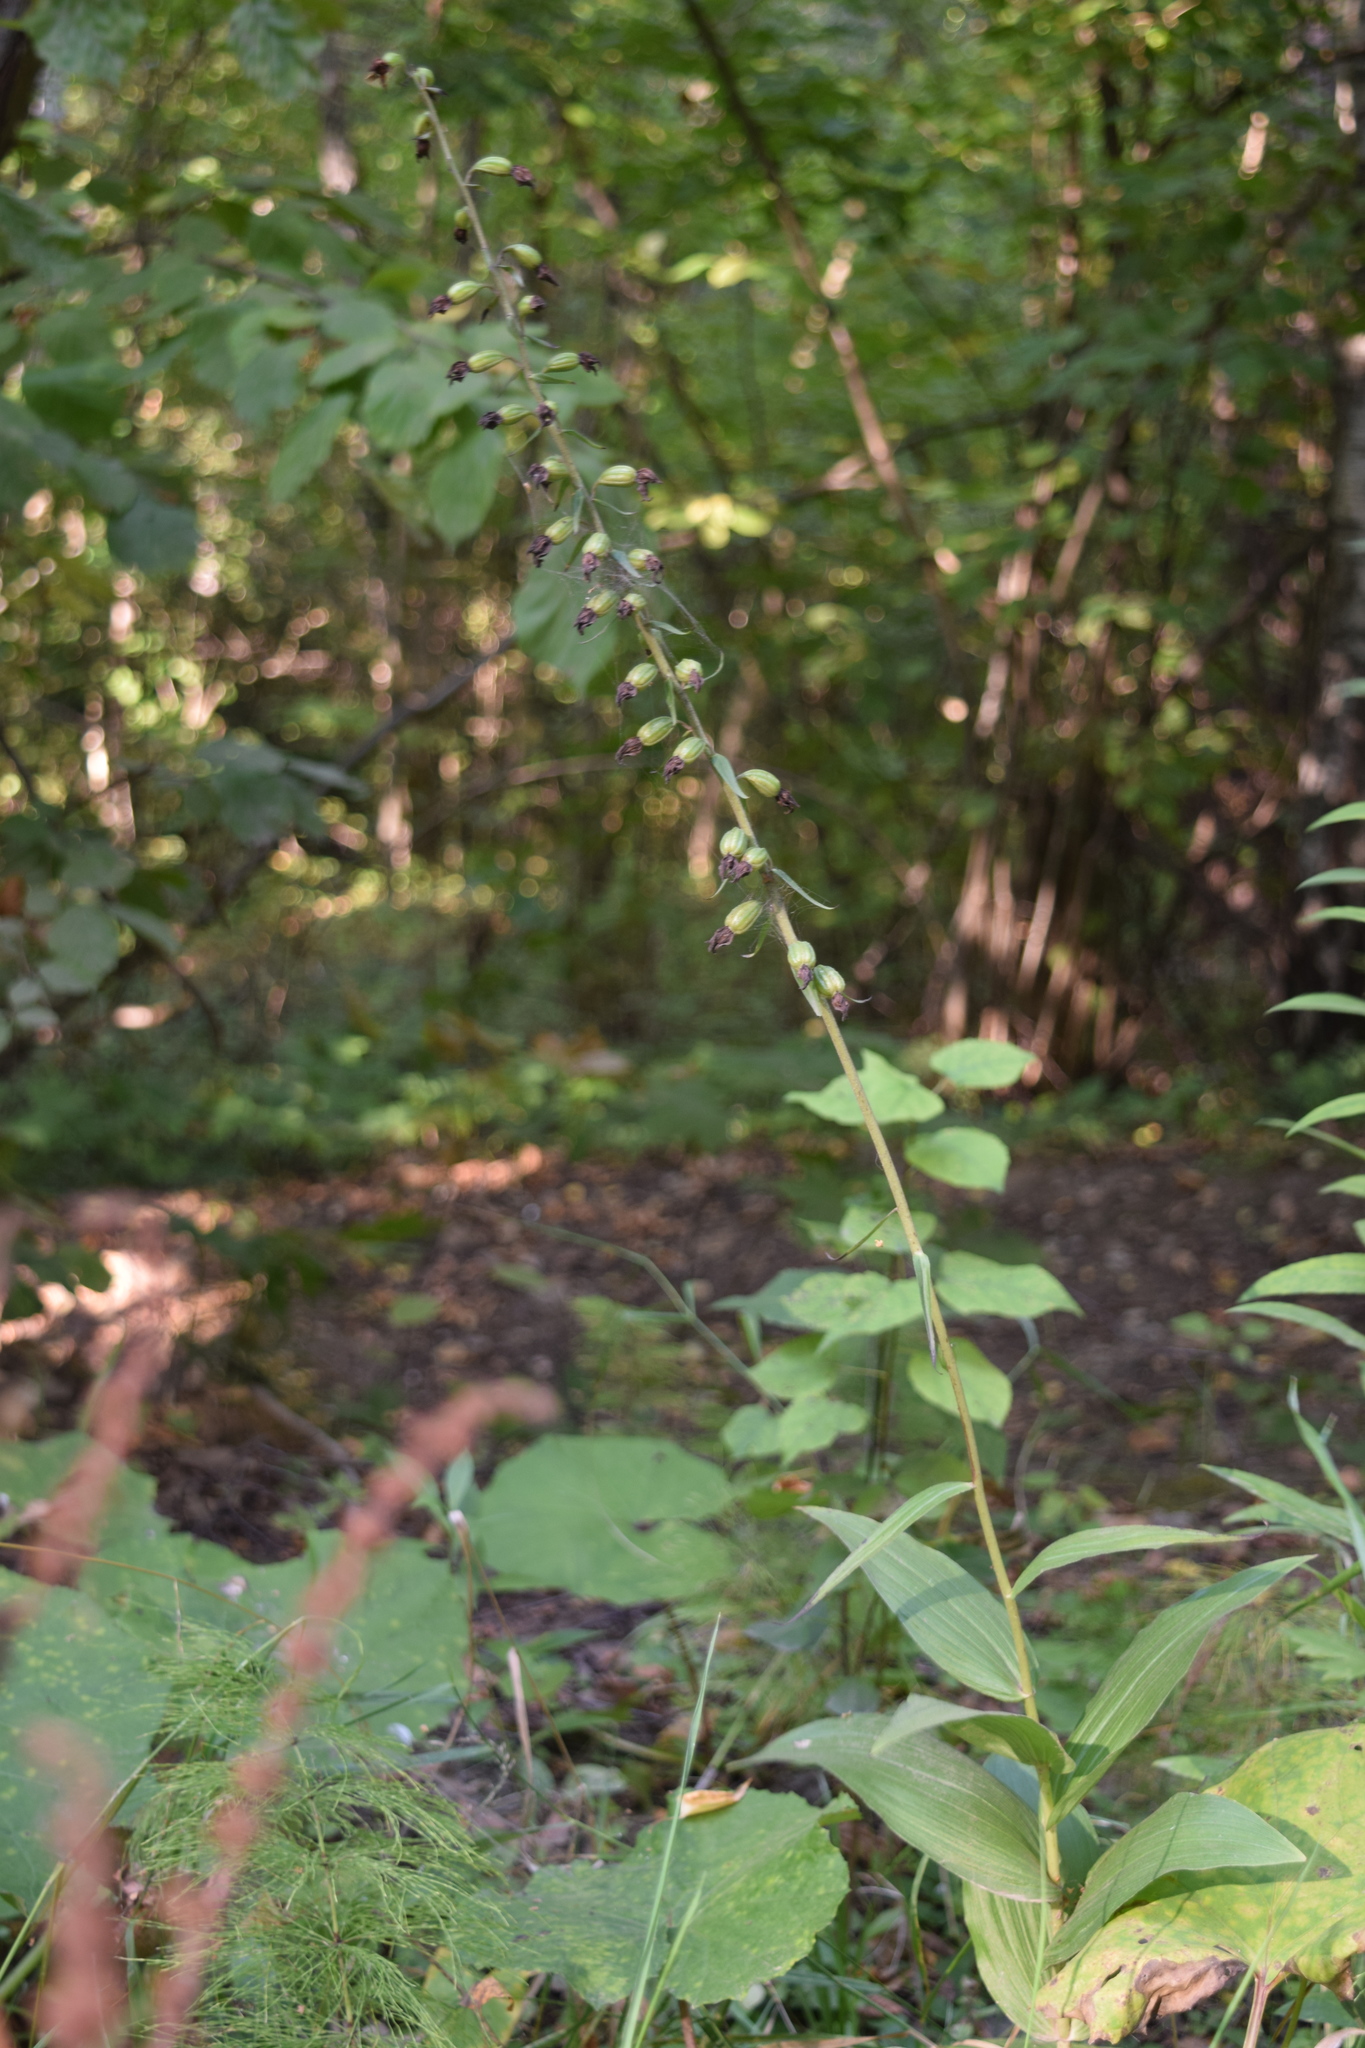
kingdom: Plantae
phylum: Tracheophyta
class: Liliopsida
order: Asparagales
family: Orchidaceae
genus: Epipactis
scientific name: Epipactis helleborine
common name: Broad-leaved helleborine
